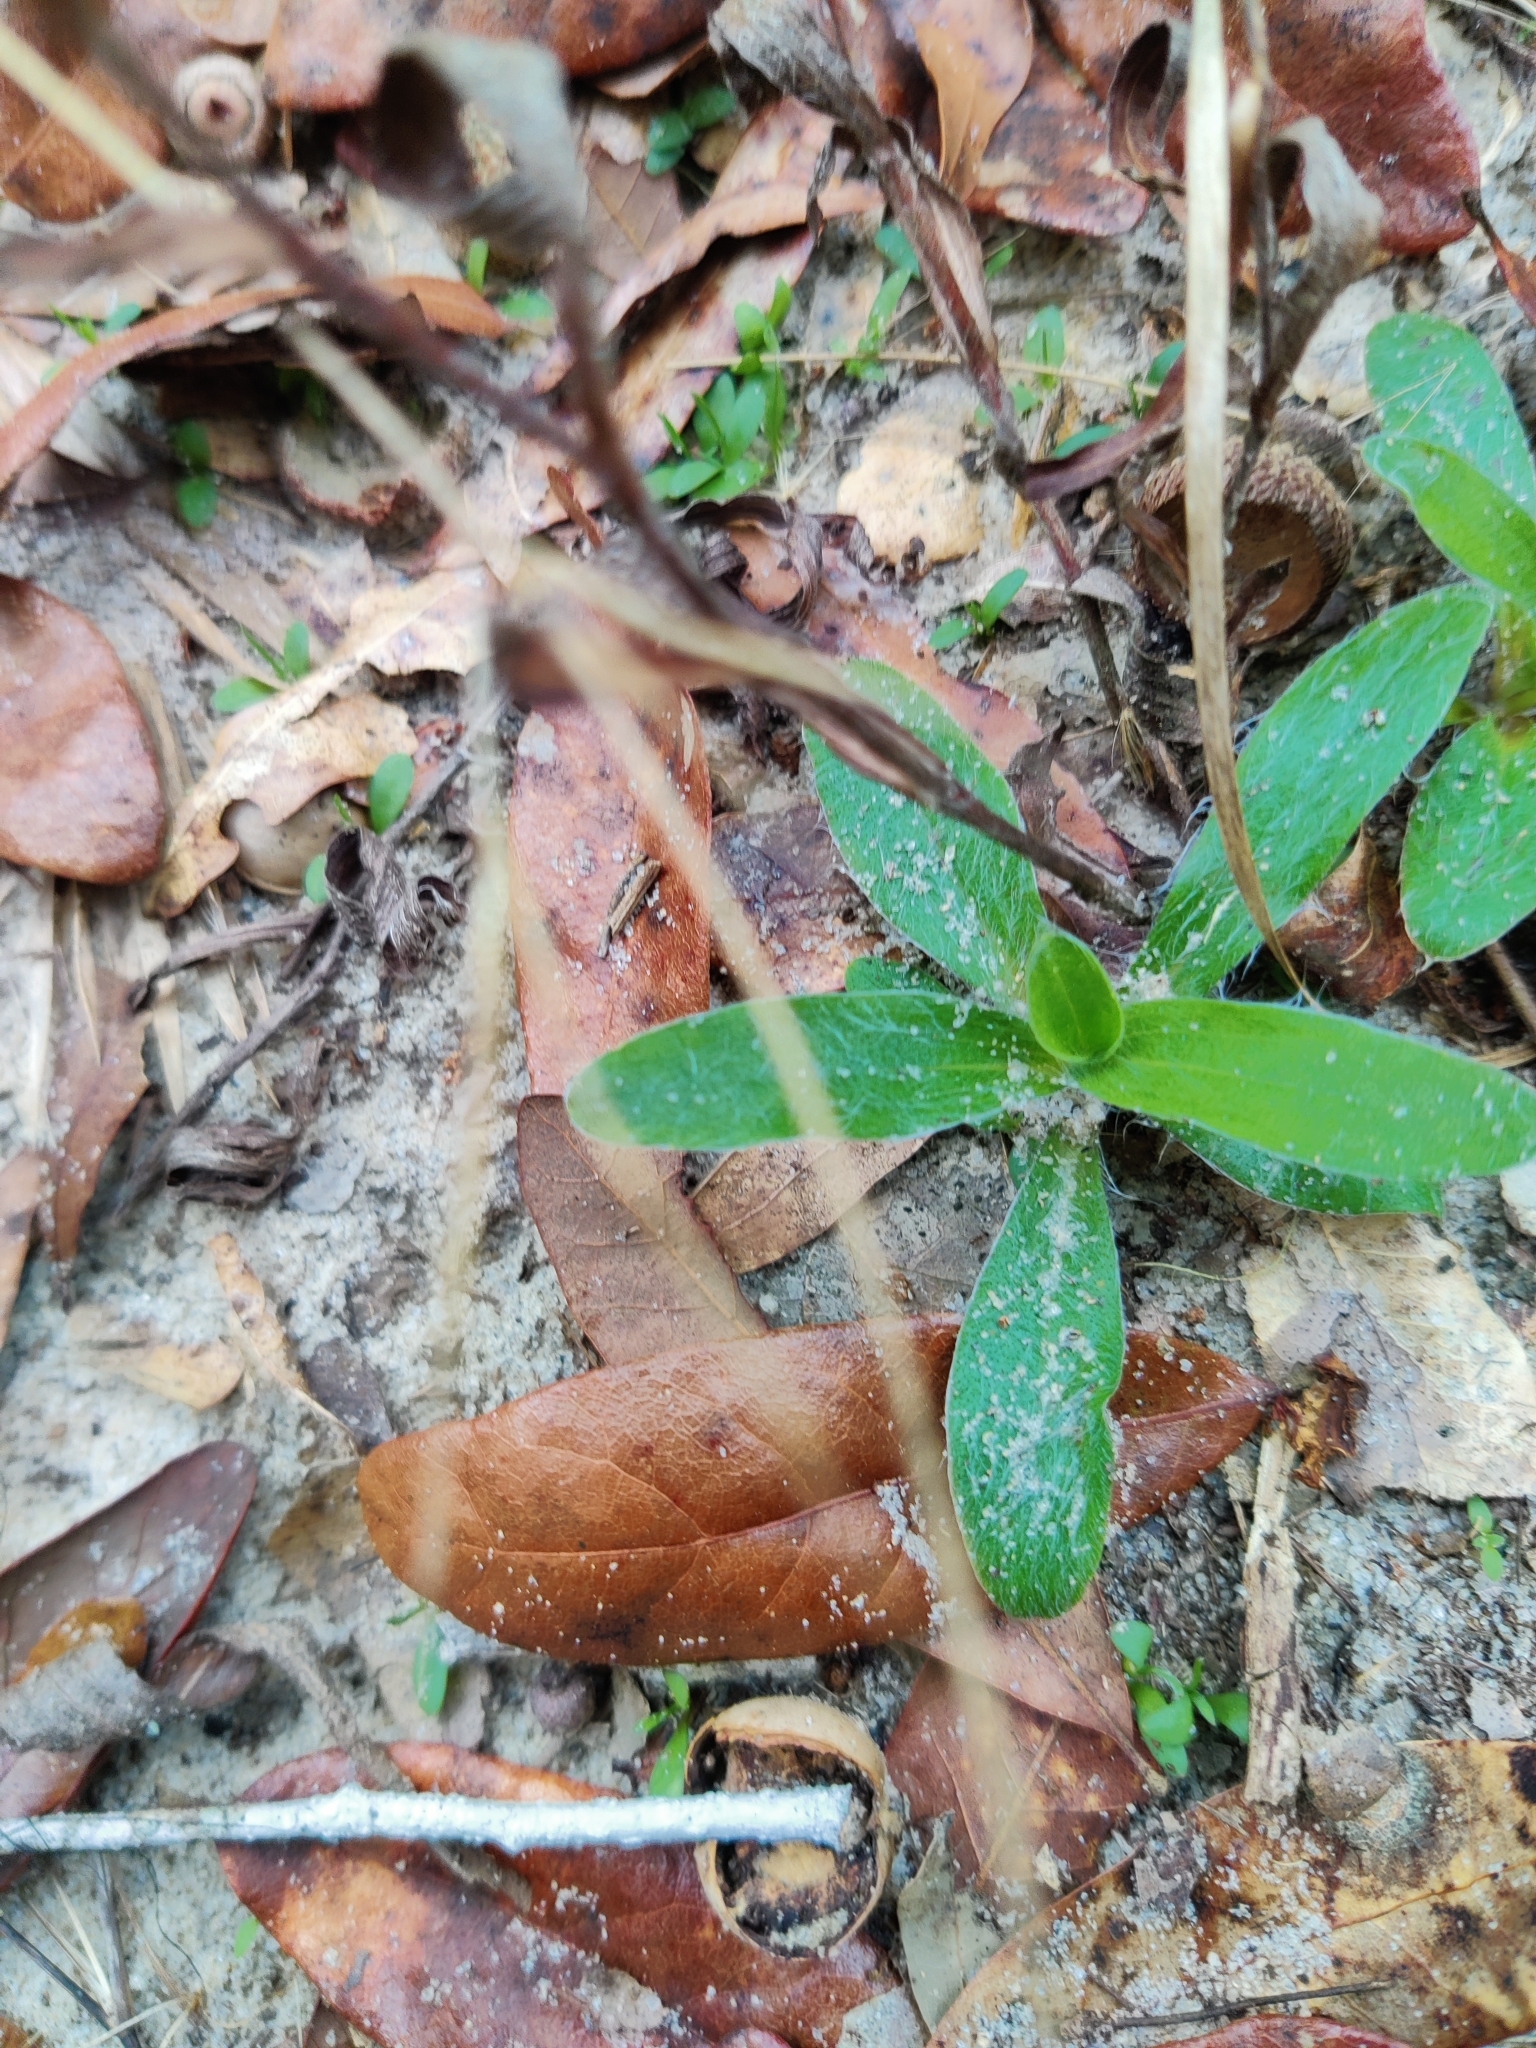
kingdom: Plantae
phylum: Tracheophyta
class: Magnoliopsida
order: Asterales
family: Asteraceae
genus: Pityopsis
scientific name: Pityopsis flexuosa
